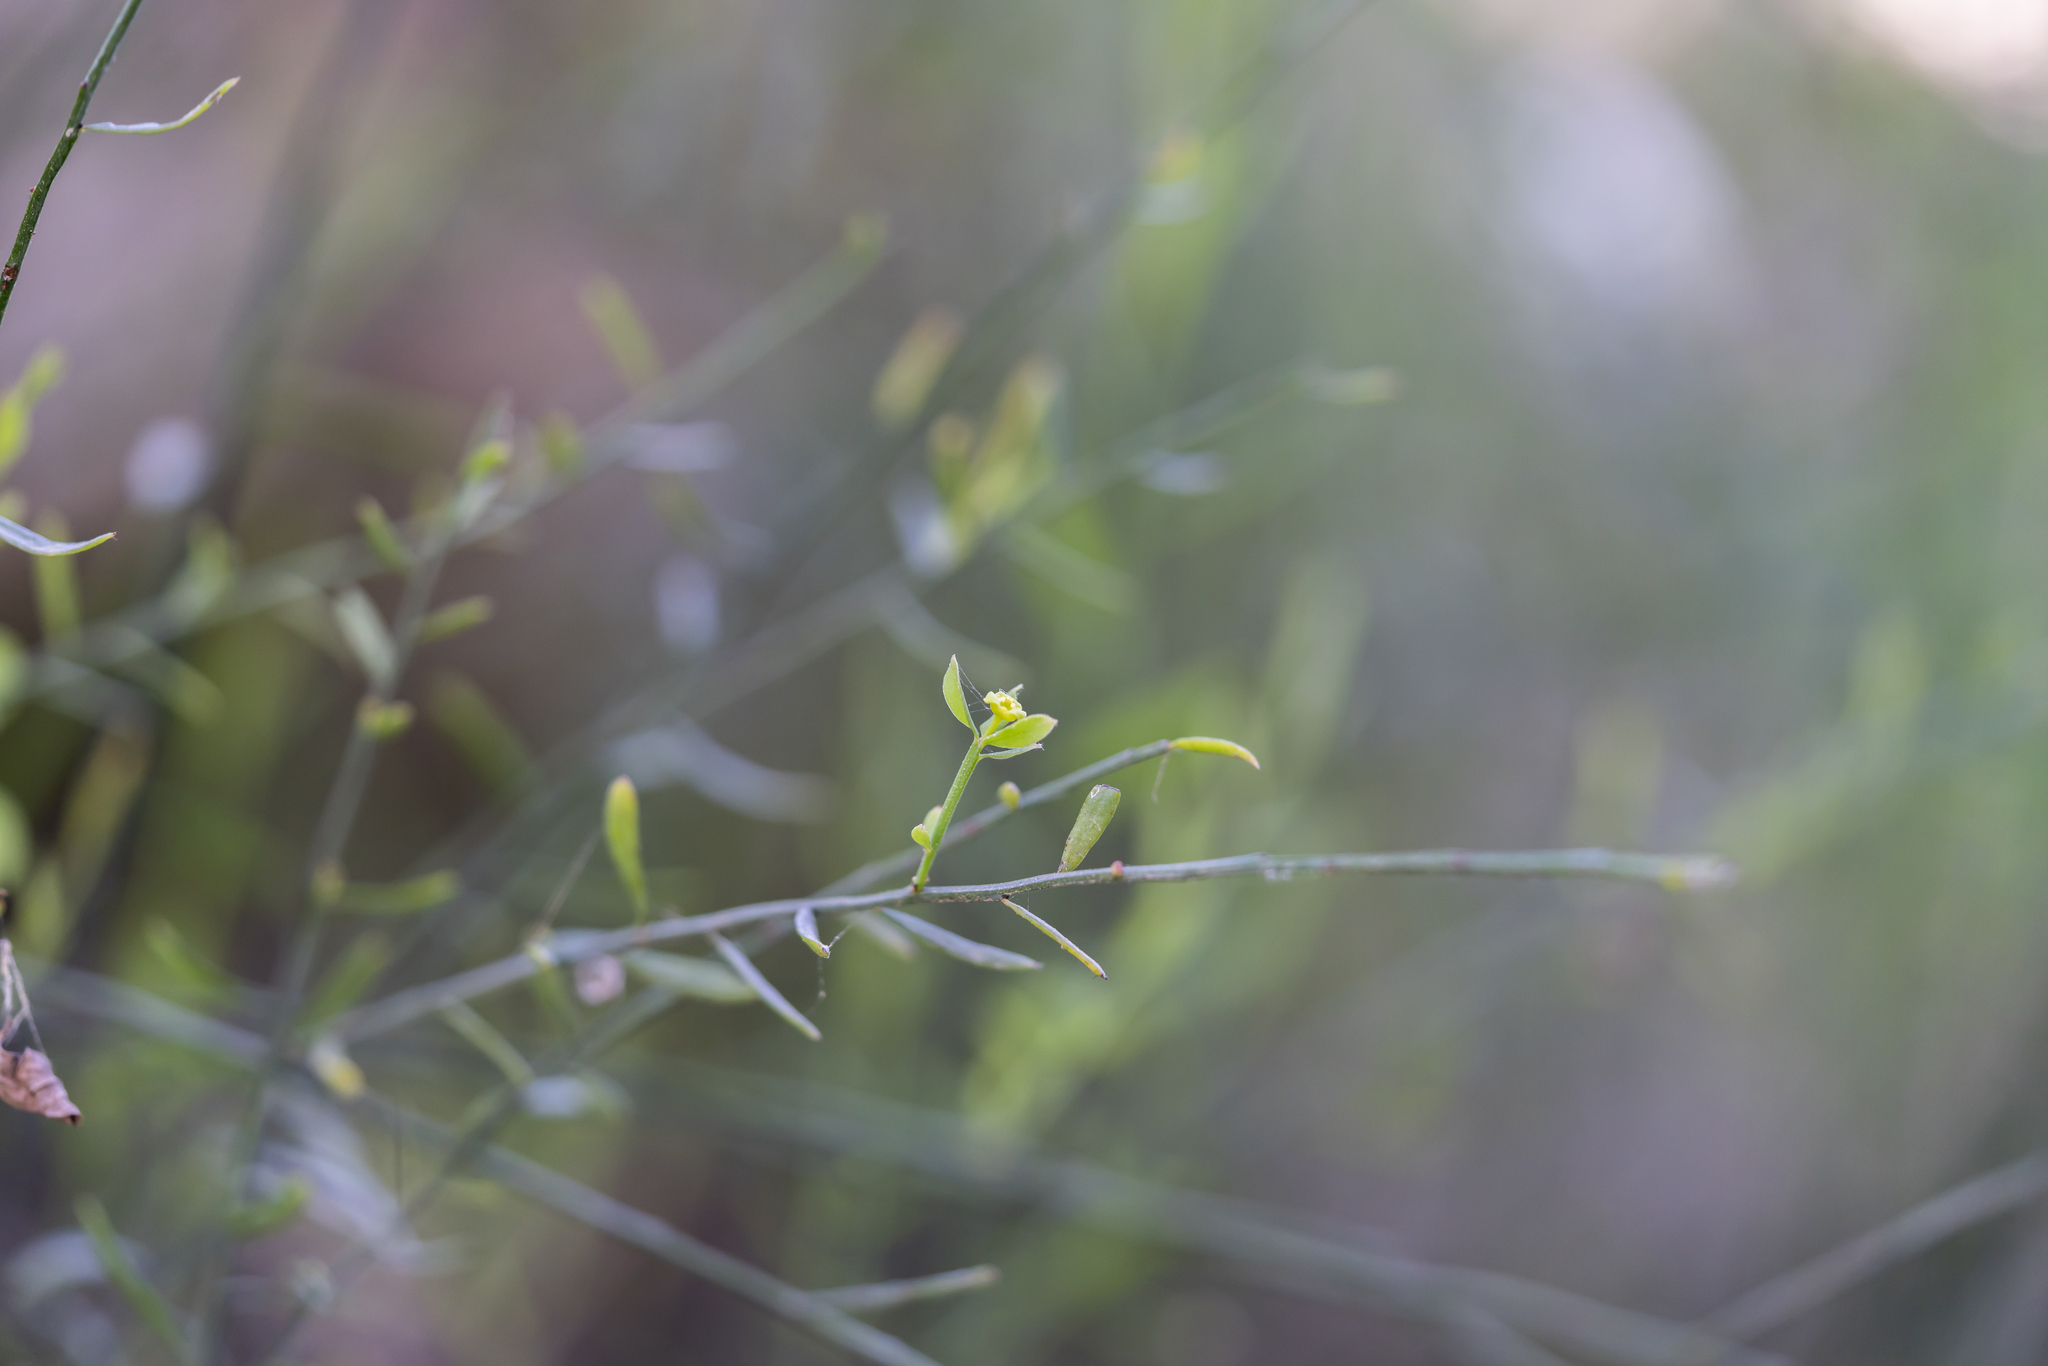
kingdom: Plantae
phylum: Tracheophyta
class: Magnoliopsida
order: Santalales
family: Santalaceae
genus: Osyris
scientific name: Osyris alba
